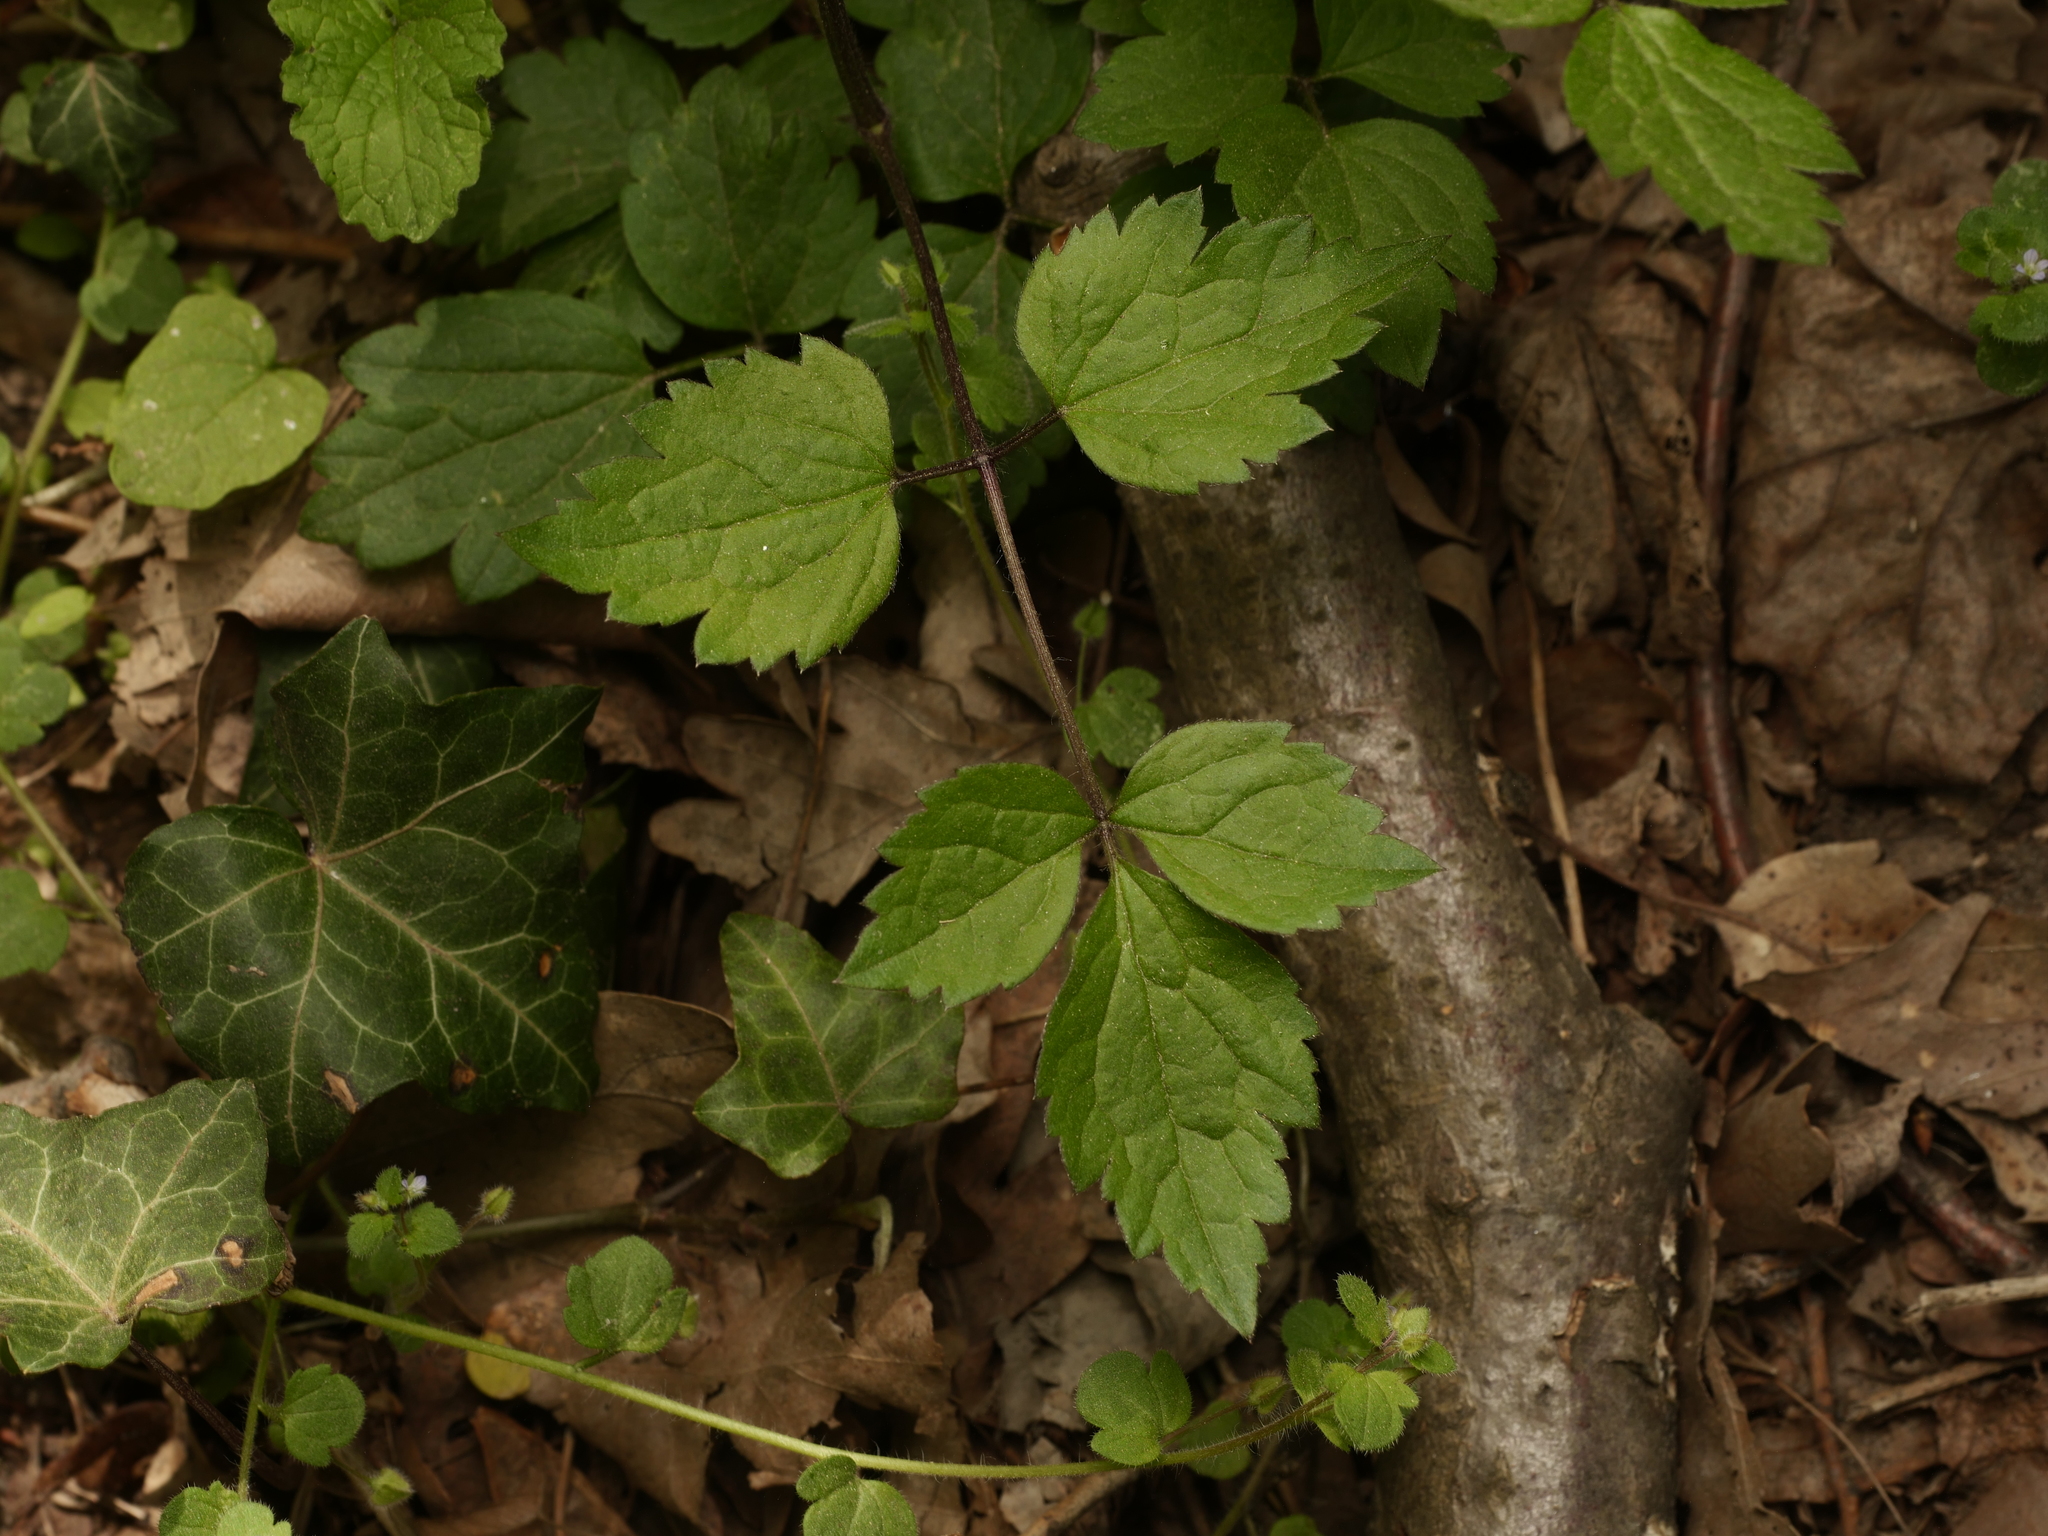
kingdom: Plantae
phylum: Tracheophyta
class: Magnoliopsida
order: Ranunculales
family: Ranunculaceae
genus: Clematis
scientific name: Clematis vitalba
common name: Evergreen clematis
